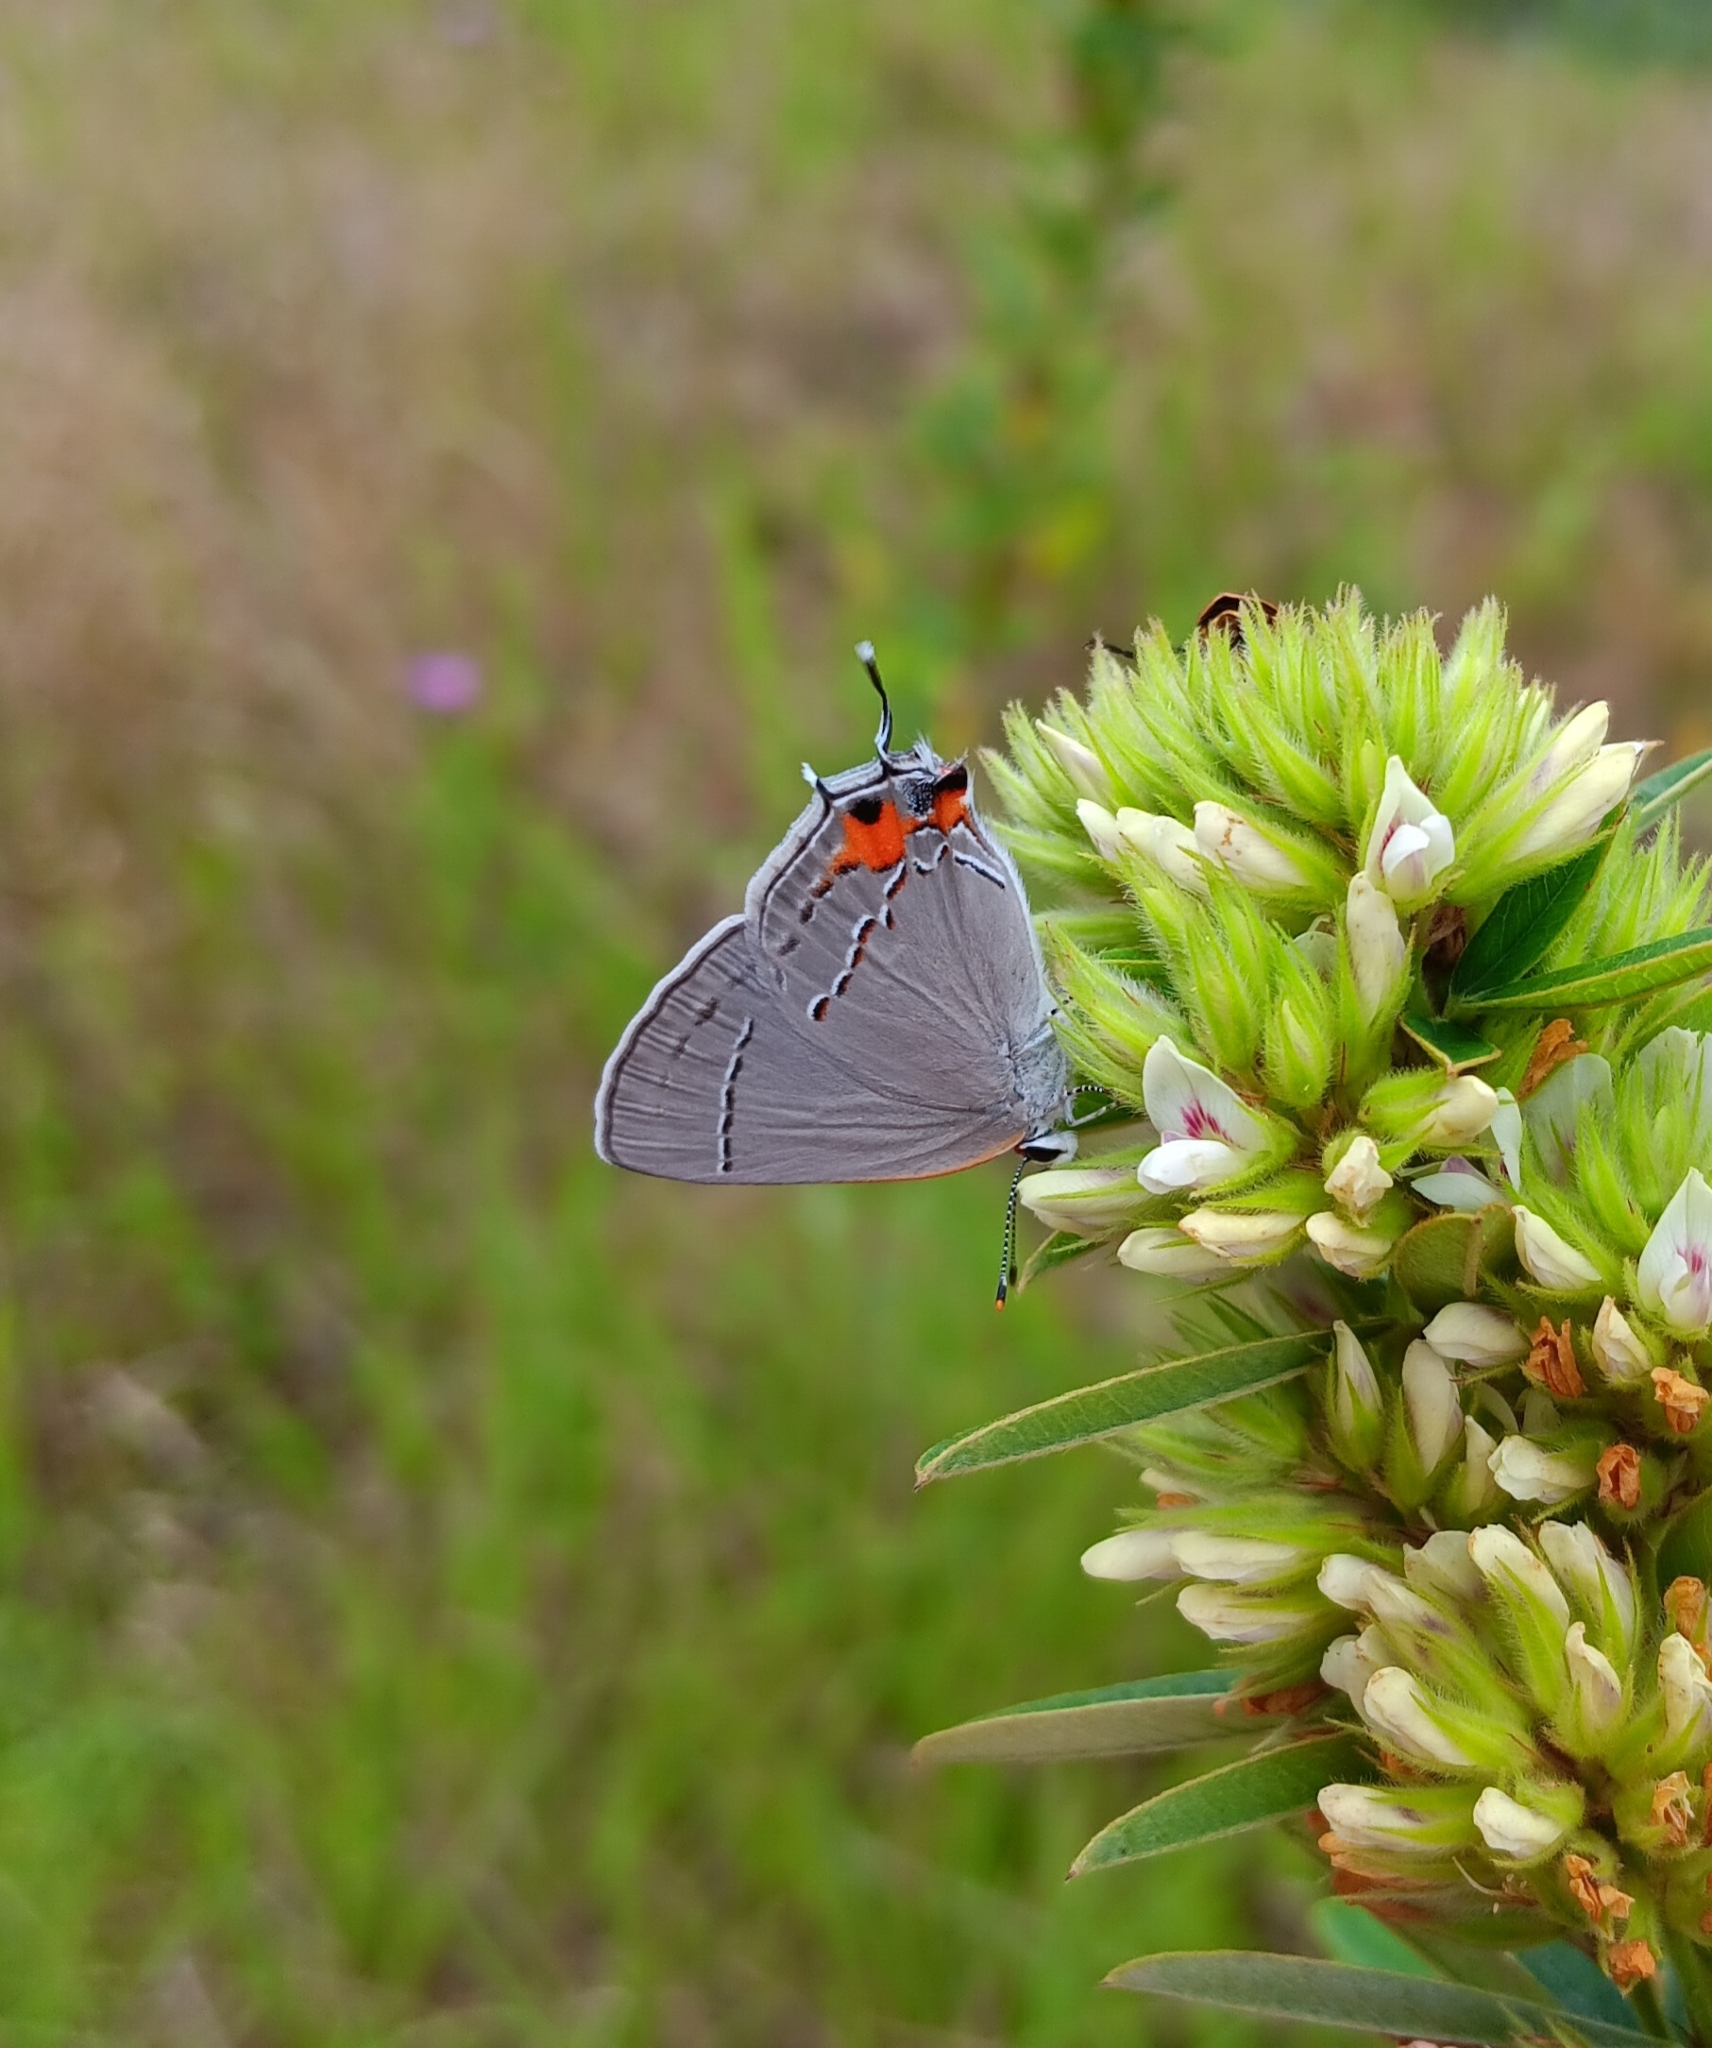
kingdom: Animalia
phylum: Arthropoda
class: Insecta
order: Lepidoptera
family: Lycaenidae
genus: Strymon
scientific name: Strymon melinus
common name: Gray hairstreak
